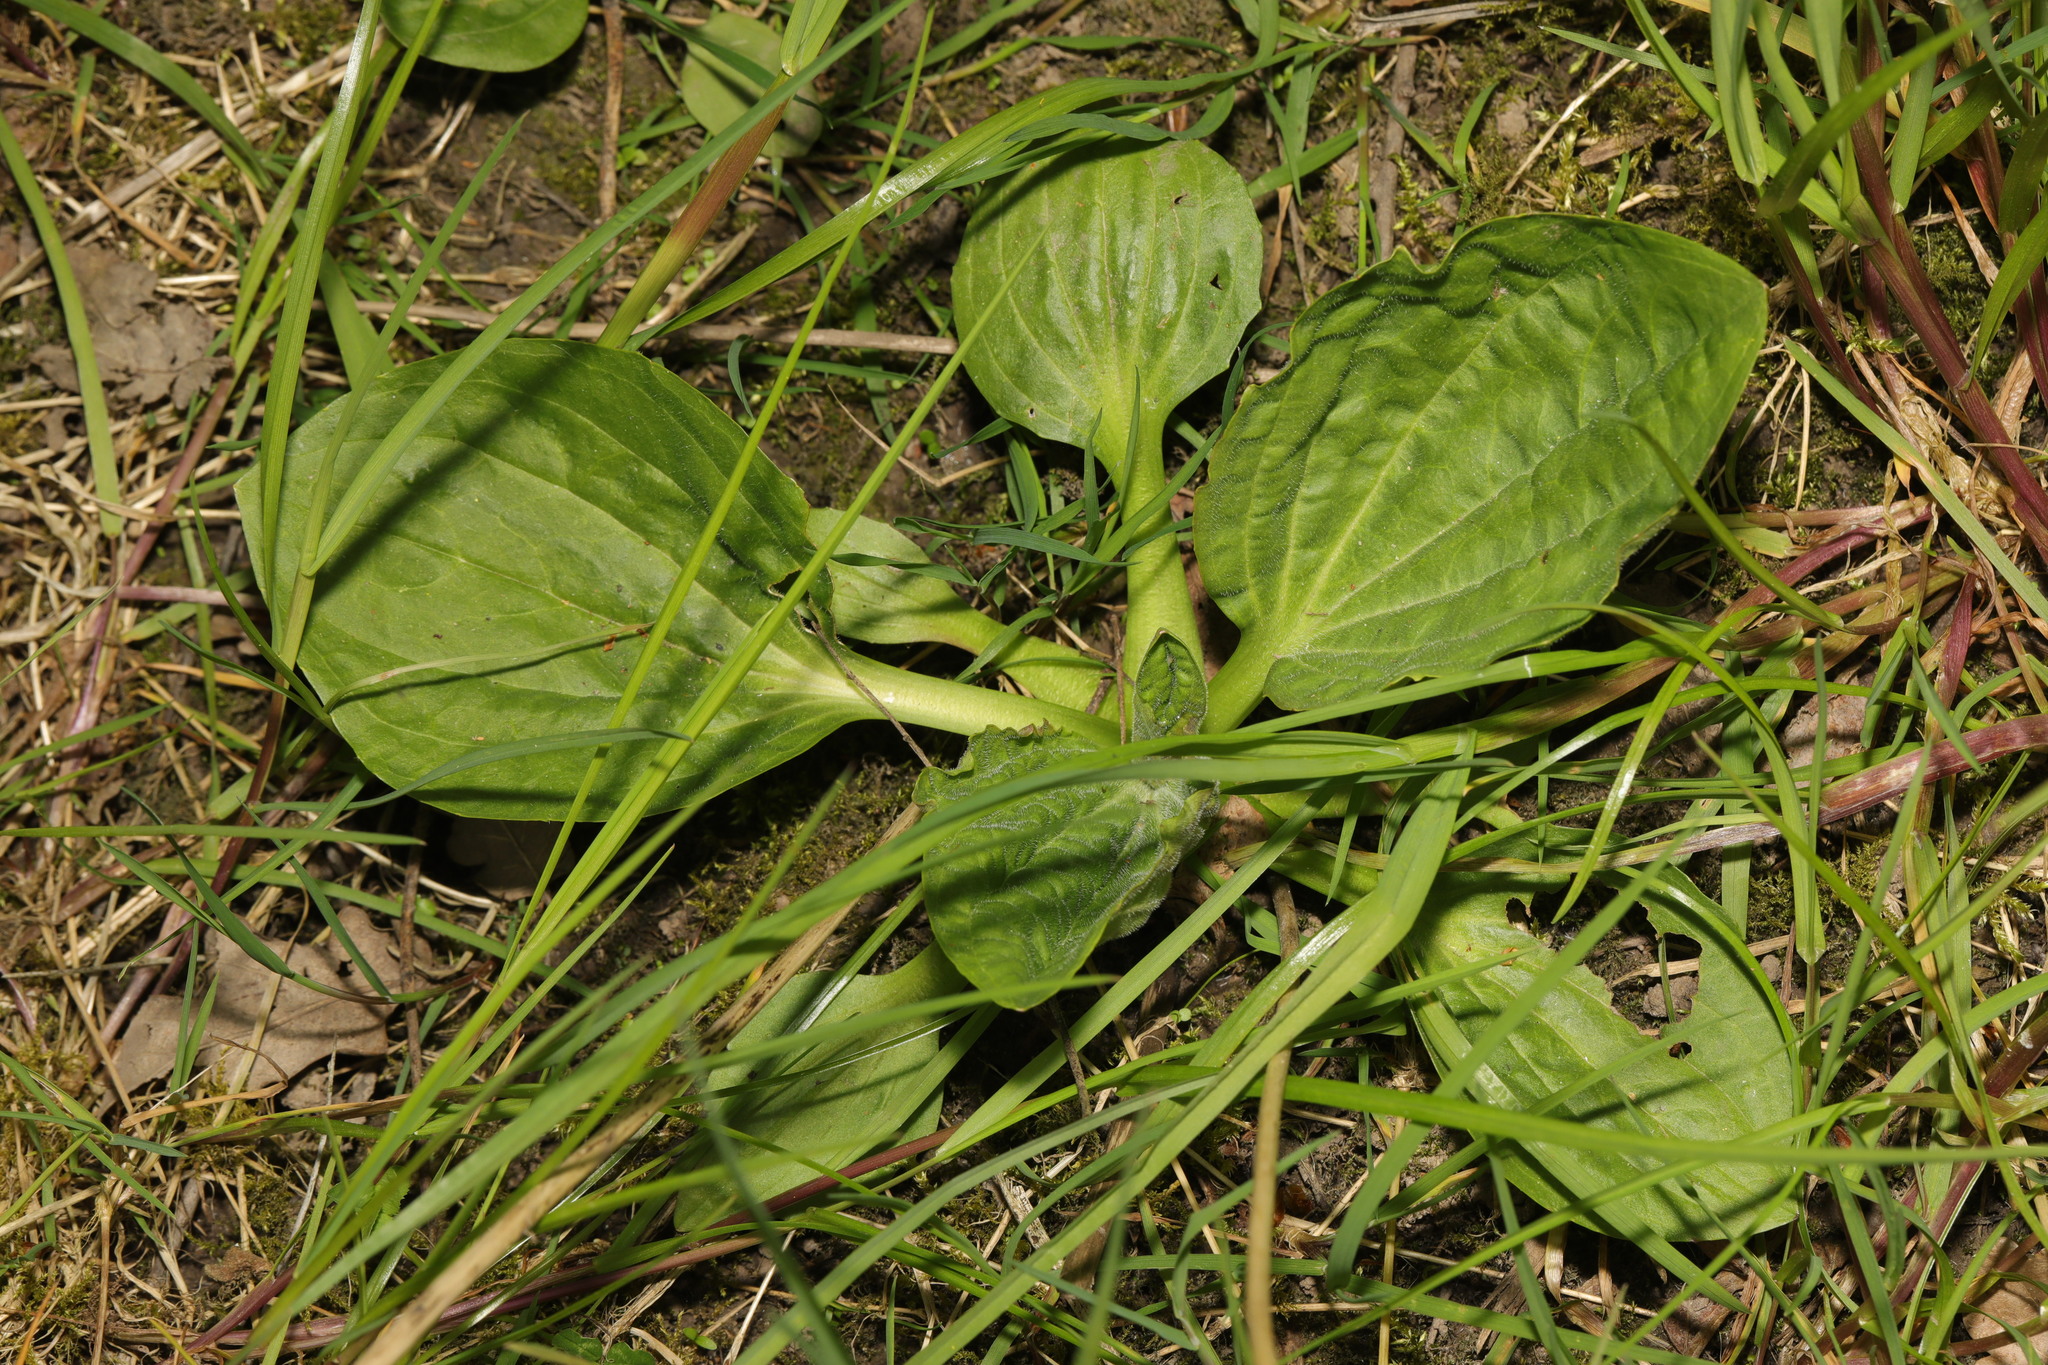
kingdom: Plantae
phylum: Tracheophyta
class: Magnoliopsida
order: Lamiales
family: Plantaginaceae
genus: Plantago
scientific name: Plantago major
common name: Common plantain
